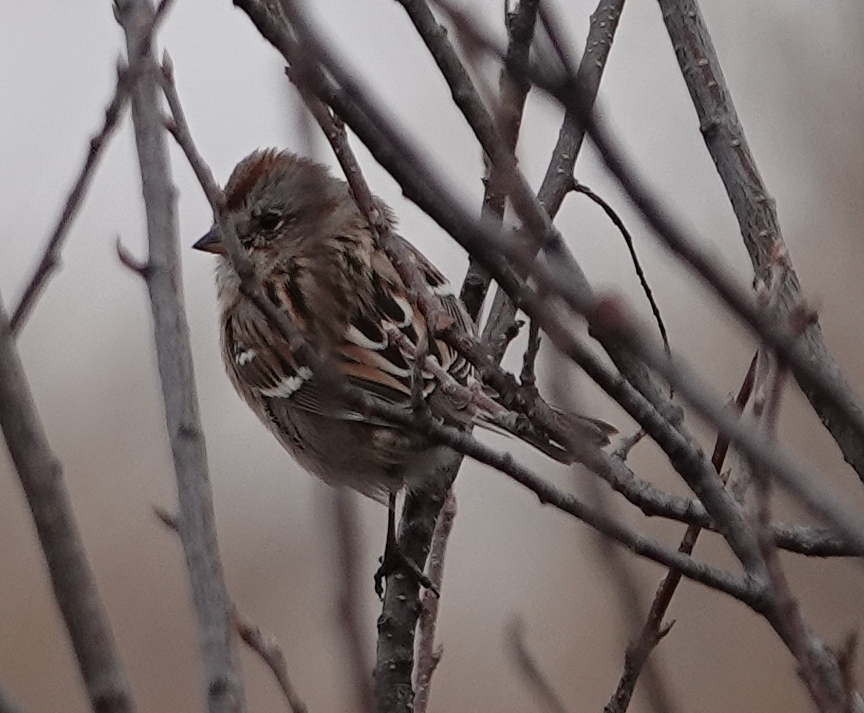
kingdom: Animalia
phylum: Chordata
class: Aves
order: Passeriformes
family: Passerellidae
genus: Spizelloides
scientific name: Spizelloides arborea
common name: American tree sparrow
